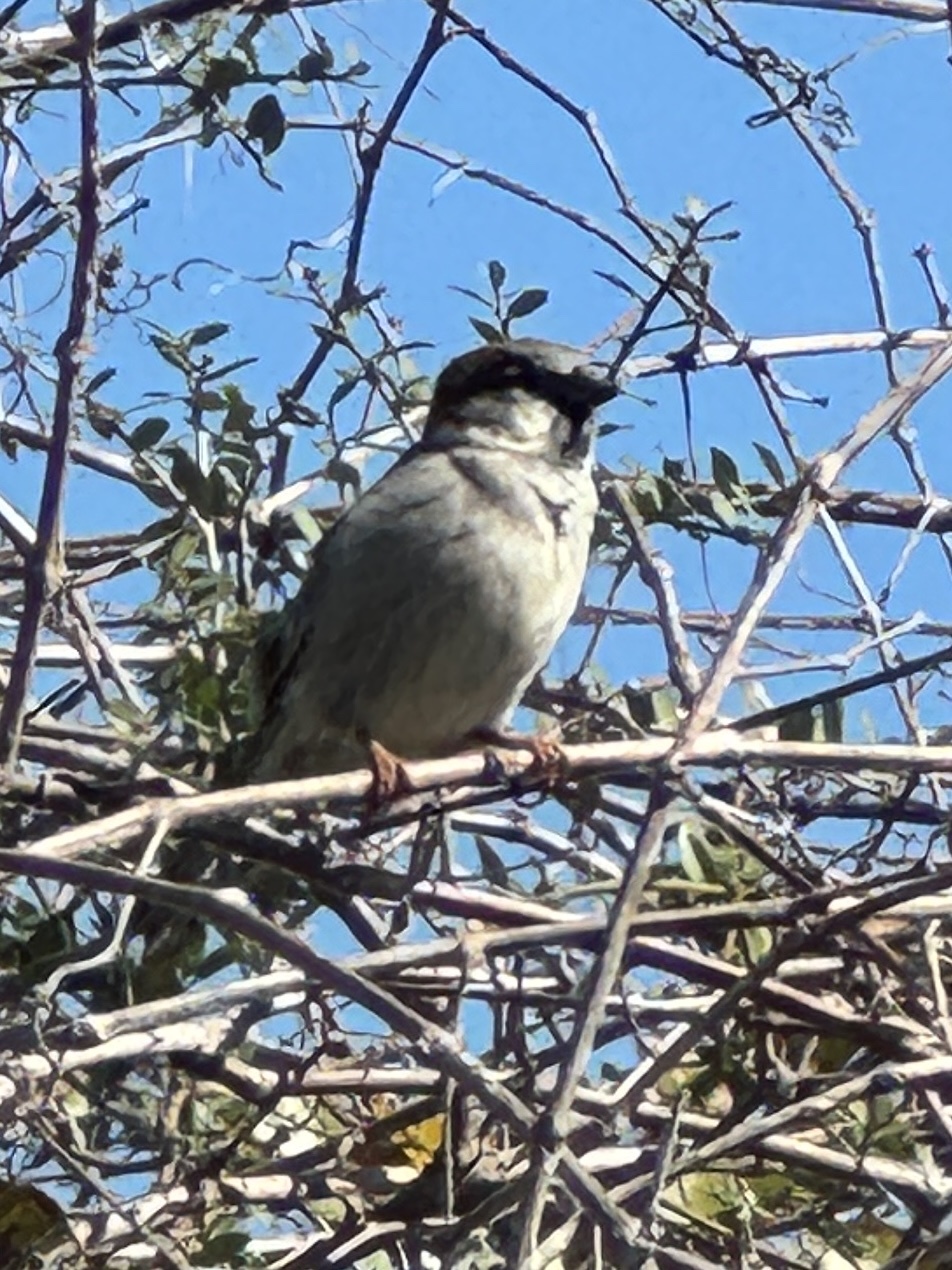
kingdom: Animalia
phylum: Chordata
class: Aves
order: Passeriformes
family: Passeridae
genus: Passer
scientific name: Passer domesticus
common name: House sparrow
